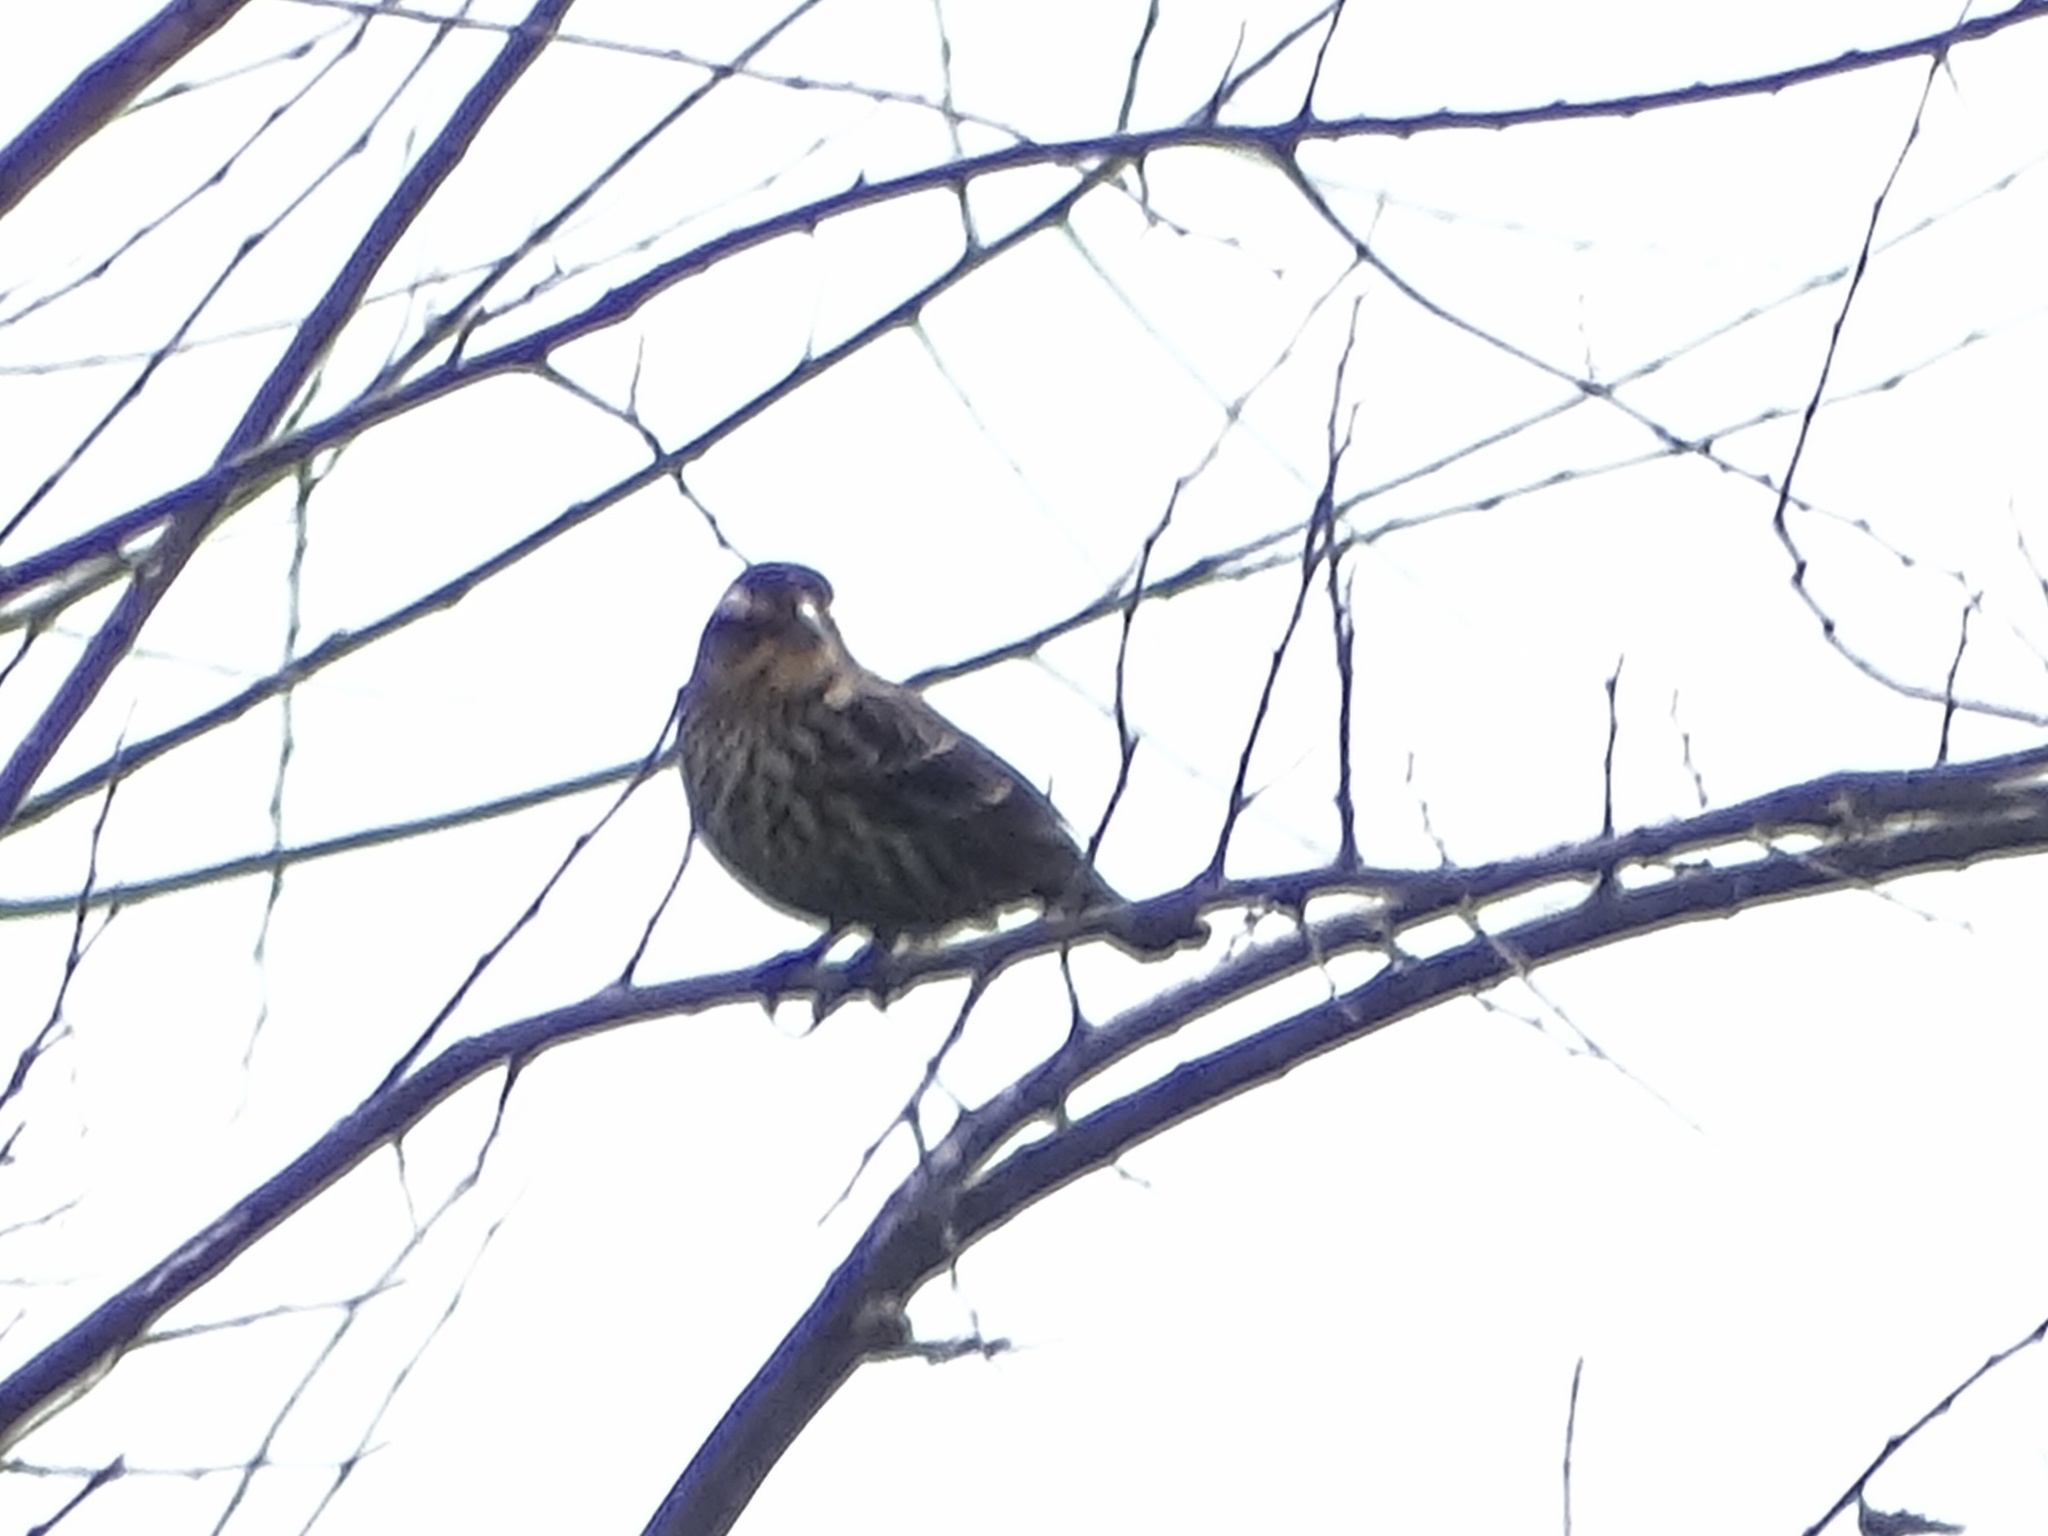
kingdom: Animalia
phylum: Chordata
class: Aves
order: Passeriformes
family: Icteridae
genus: Agelaius
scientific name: Agelaius phoeniceus
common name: Red-winged blackbird
